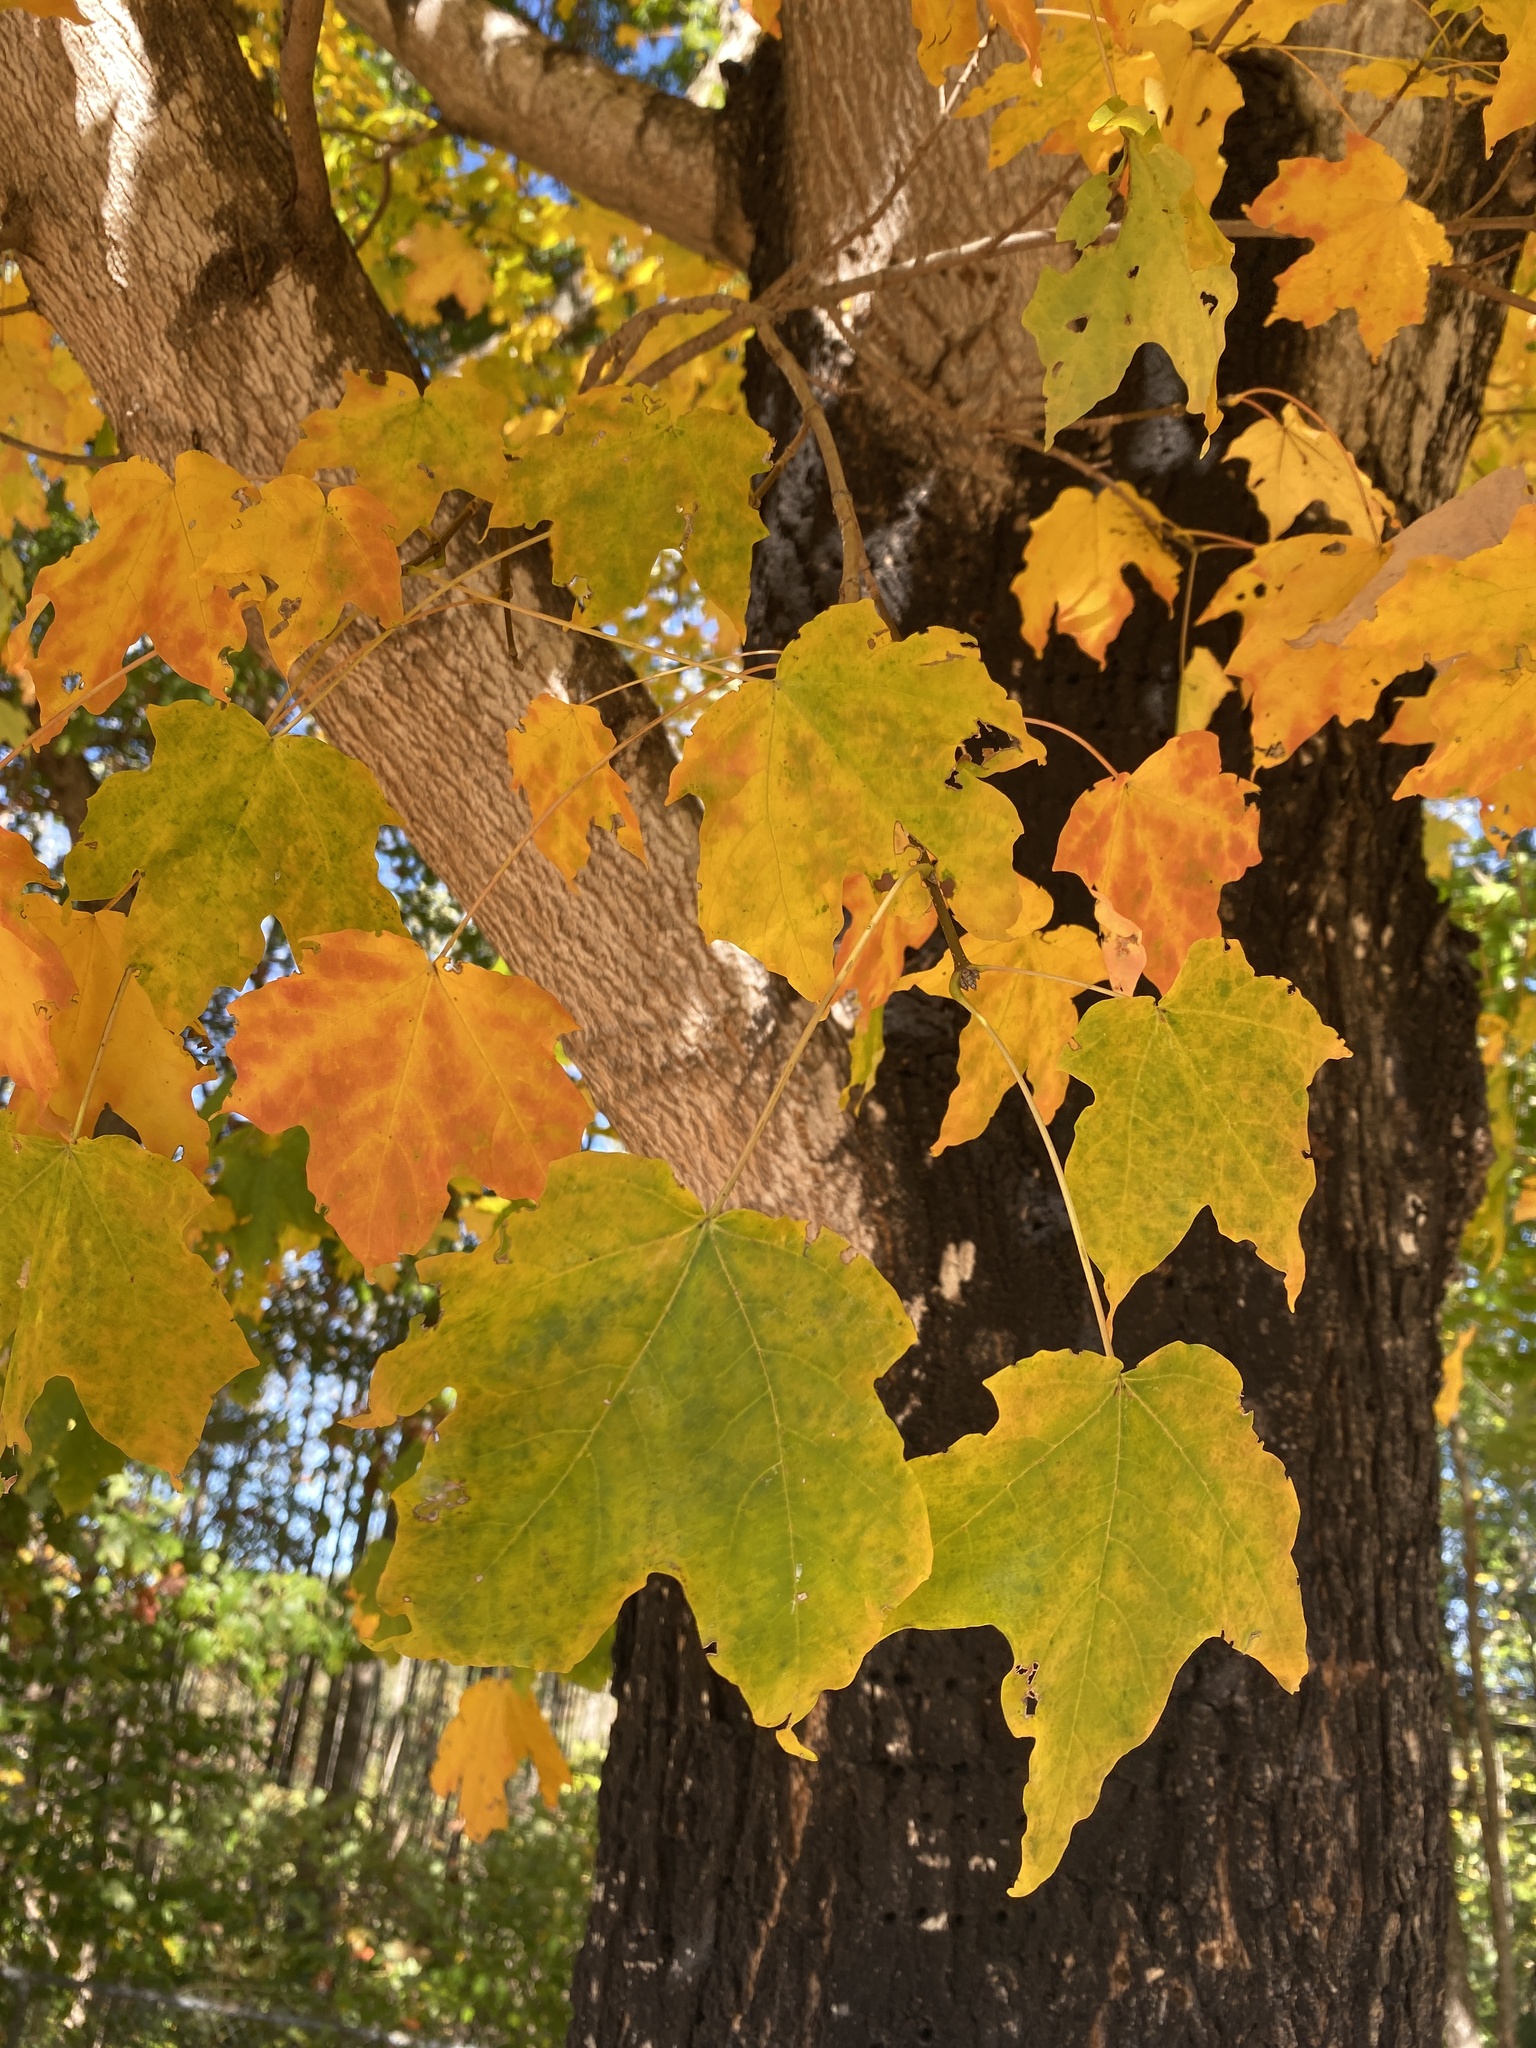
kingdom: Plantae
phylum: Tracheophyta
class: Magnoliopsida
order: Sapindales
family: Sapindaceae
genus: Acer
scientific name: Acer saccharum
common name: Sugar maple
